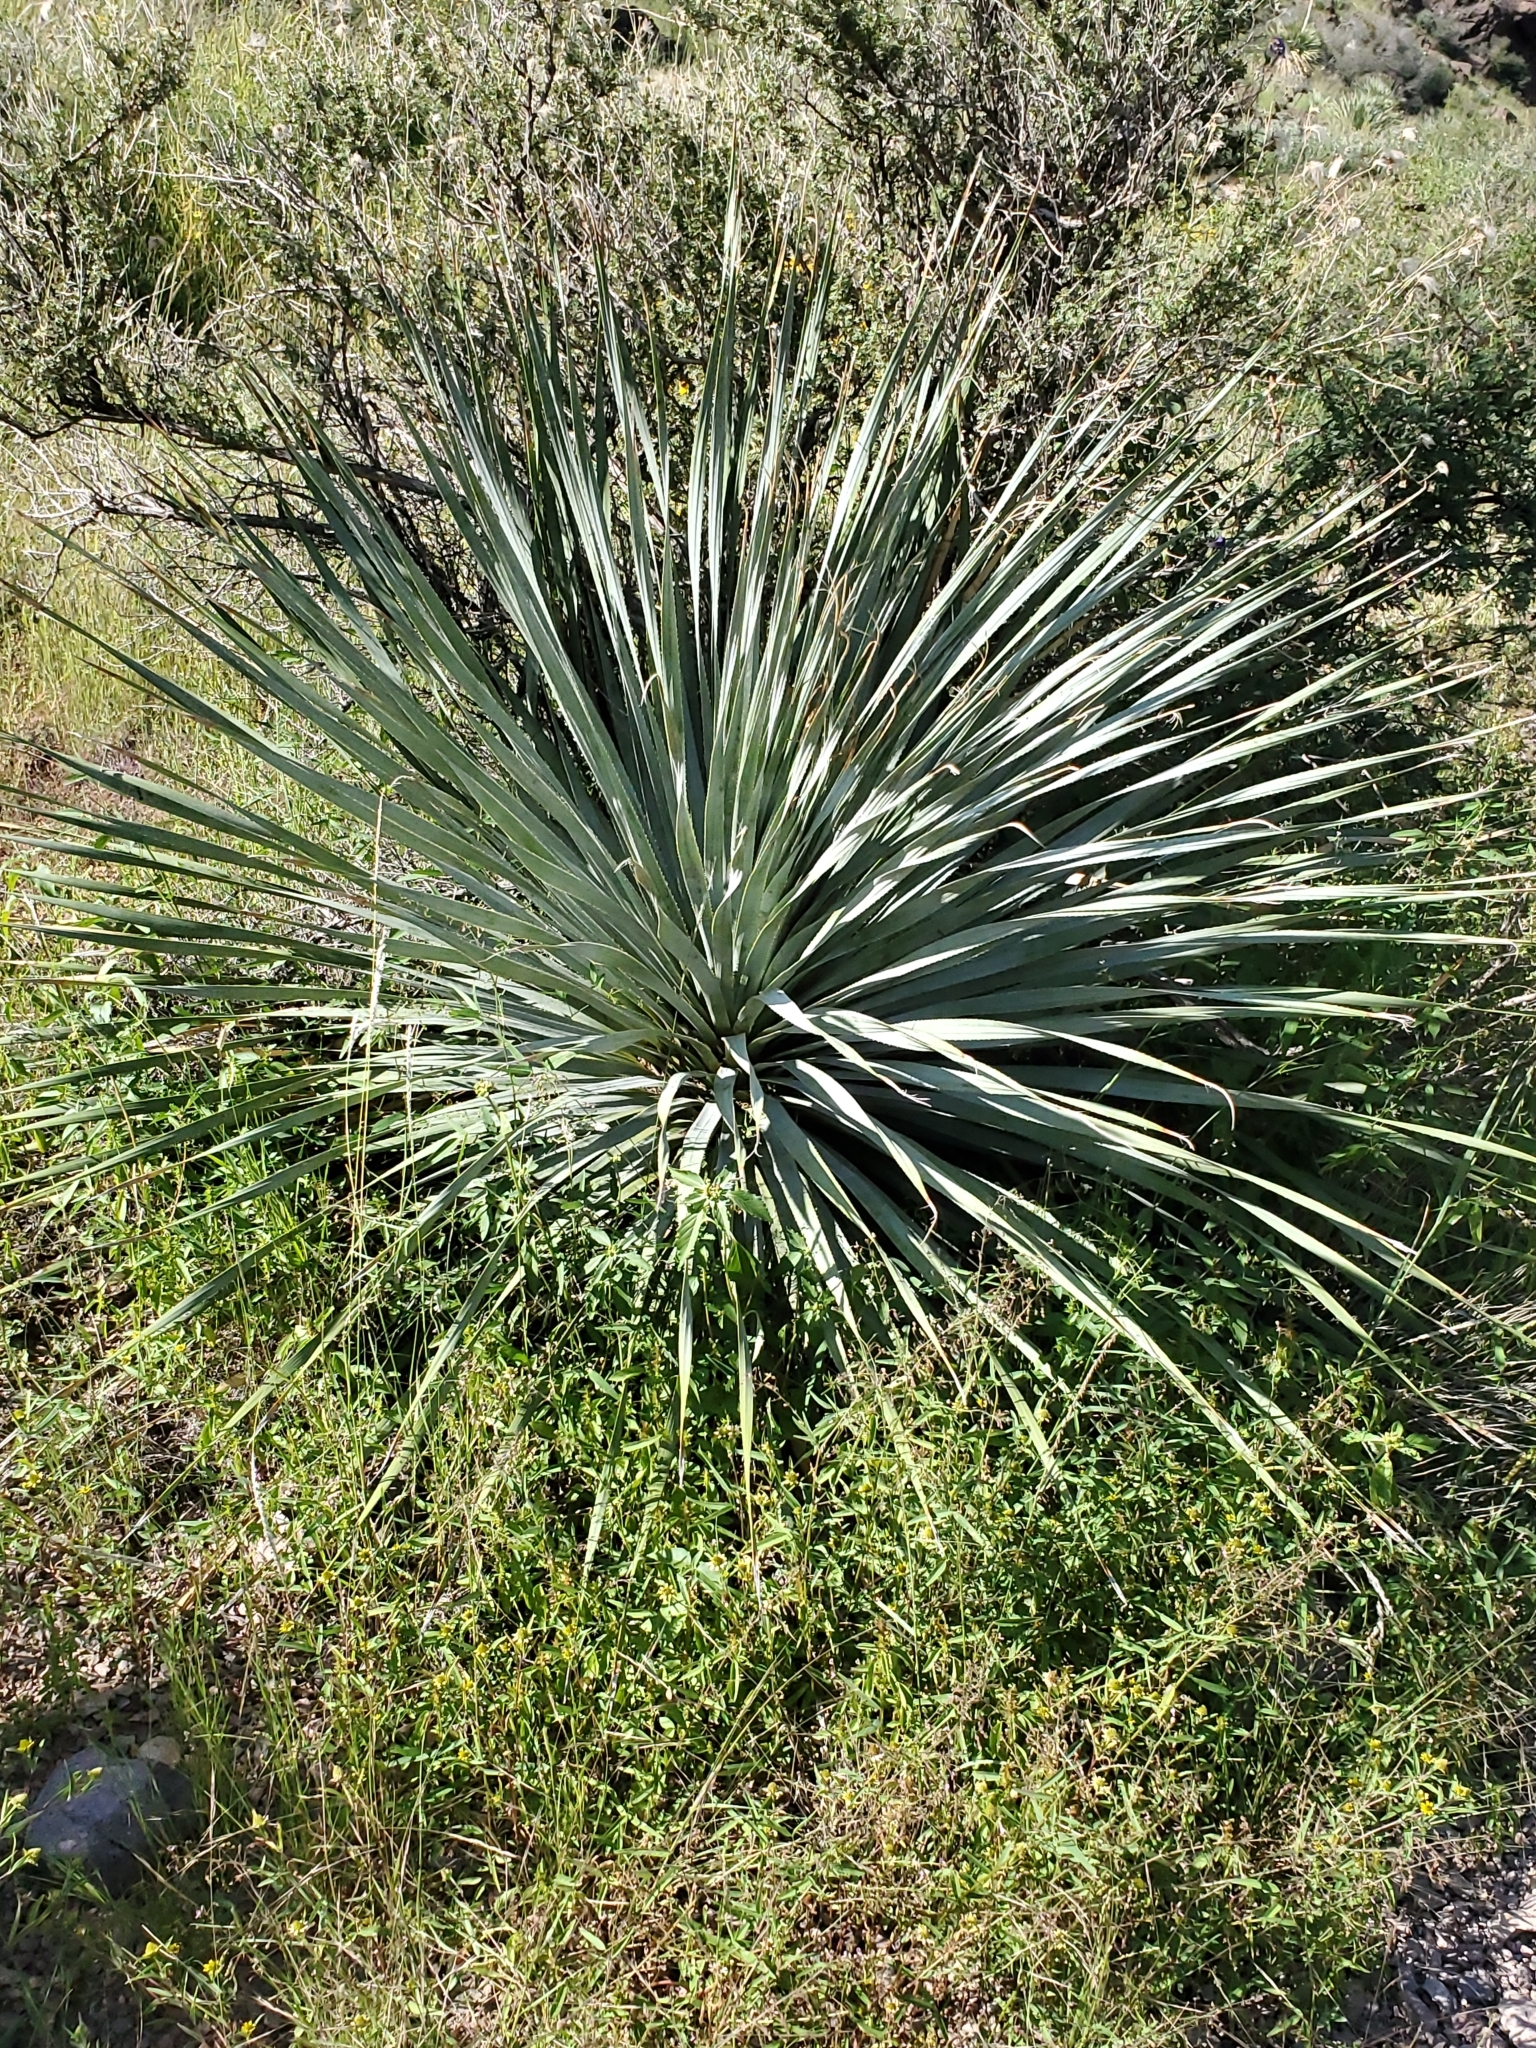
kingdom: Plantae
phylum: Tracheophyta
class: Liliopsida
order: Asparagales
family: Asparagaceae
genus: Dasylirion
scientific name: Dasylirion wheeleri
